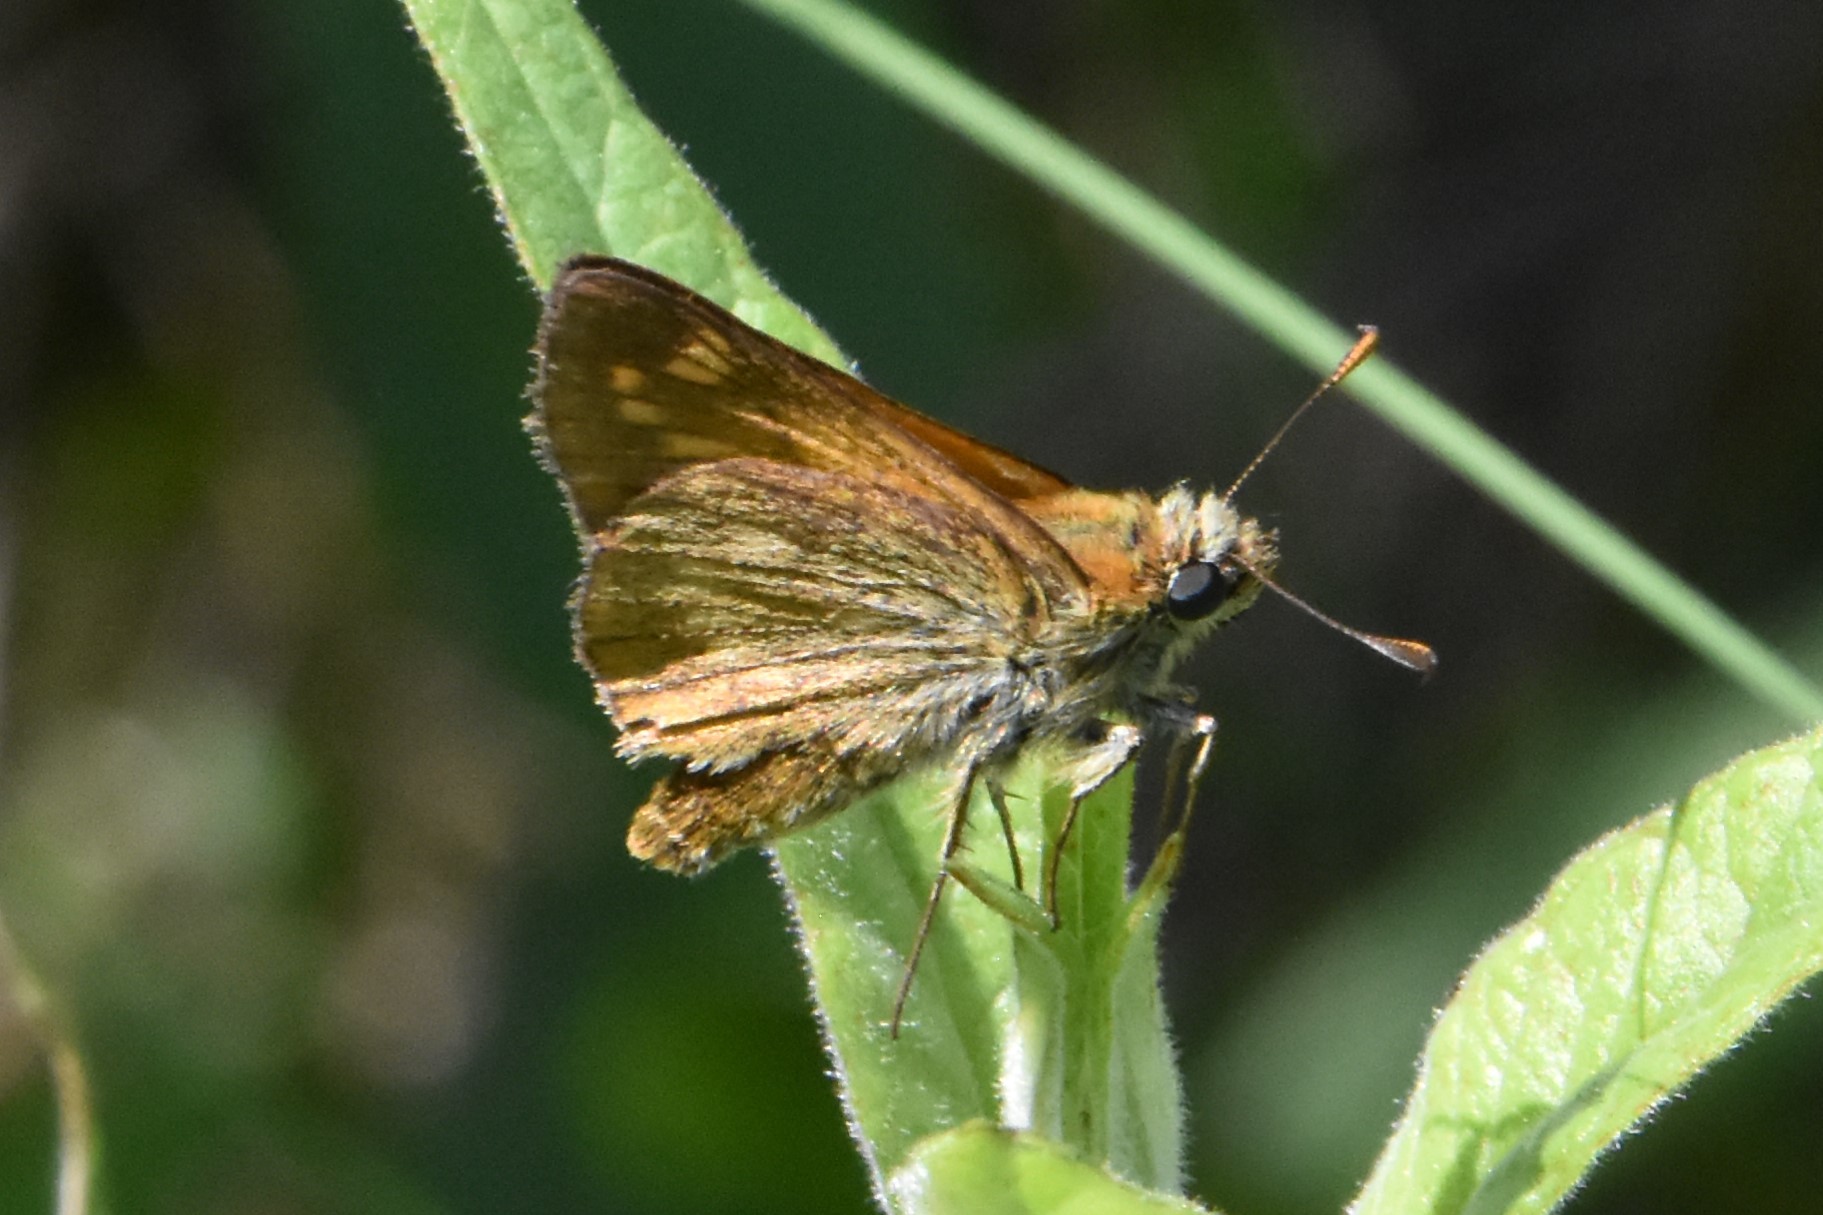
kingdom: Animalia
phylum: Arthropoda
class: Insecta
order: Lepidoptera
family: Hesperiidae
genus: Ochlodes
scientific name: Ochlodes venata
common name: Large skipper
